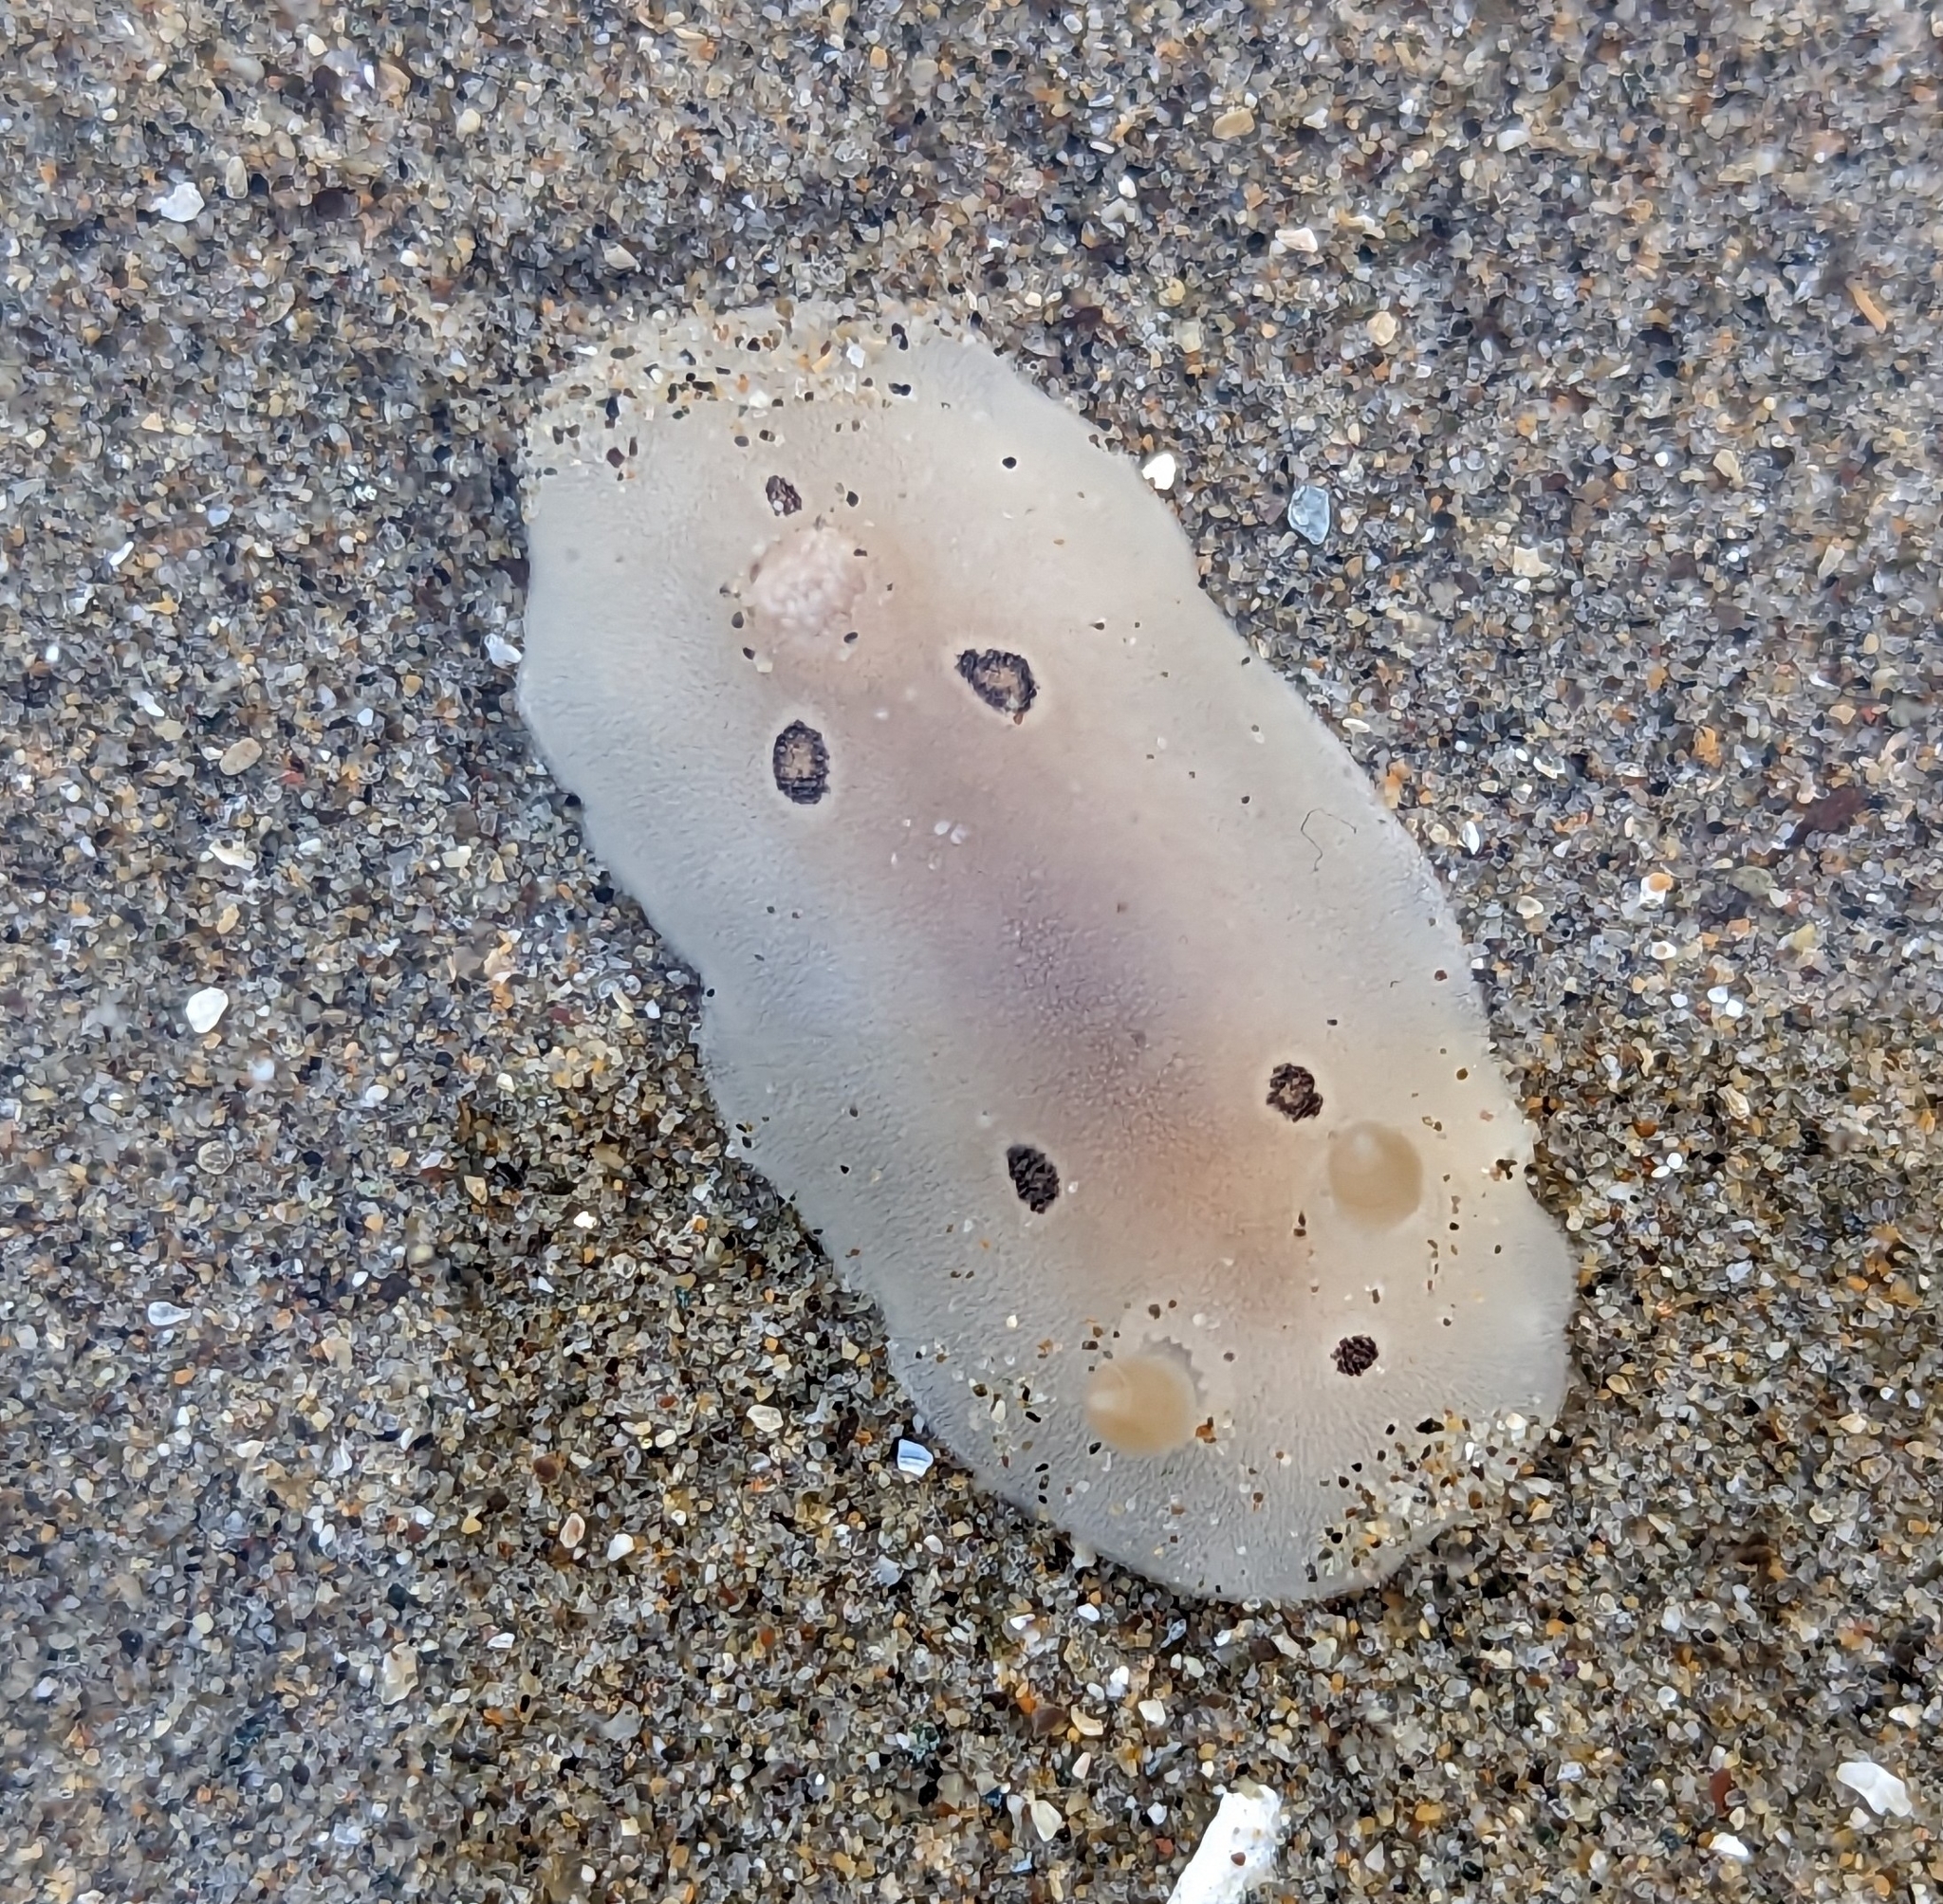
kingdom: Animalia
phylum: Mollusca
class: Gastropoda
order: Nudibranchia
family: Discodorididae
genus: Diaulula
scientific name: Diaulula sandiegensis
